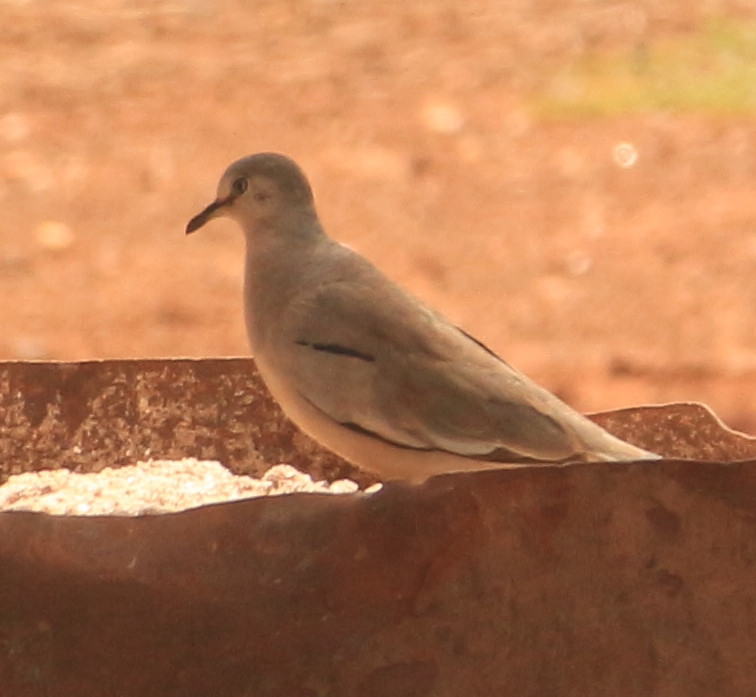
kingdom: Animalia
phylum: Chordata
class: Aves
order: Columbiformes
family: Columbidae
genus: Columbina
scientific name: Columbina picui
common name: Picui ground dove
